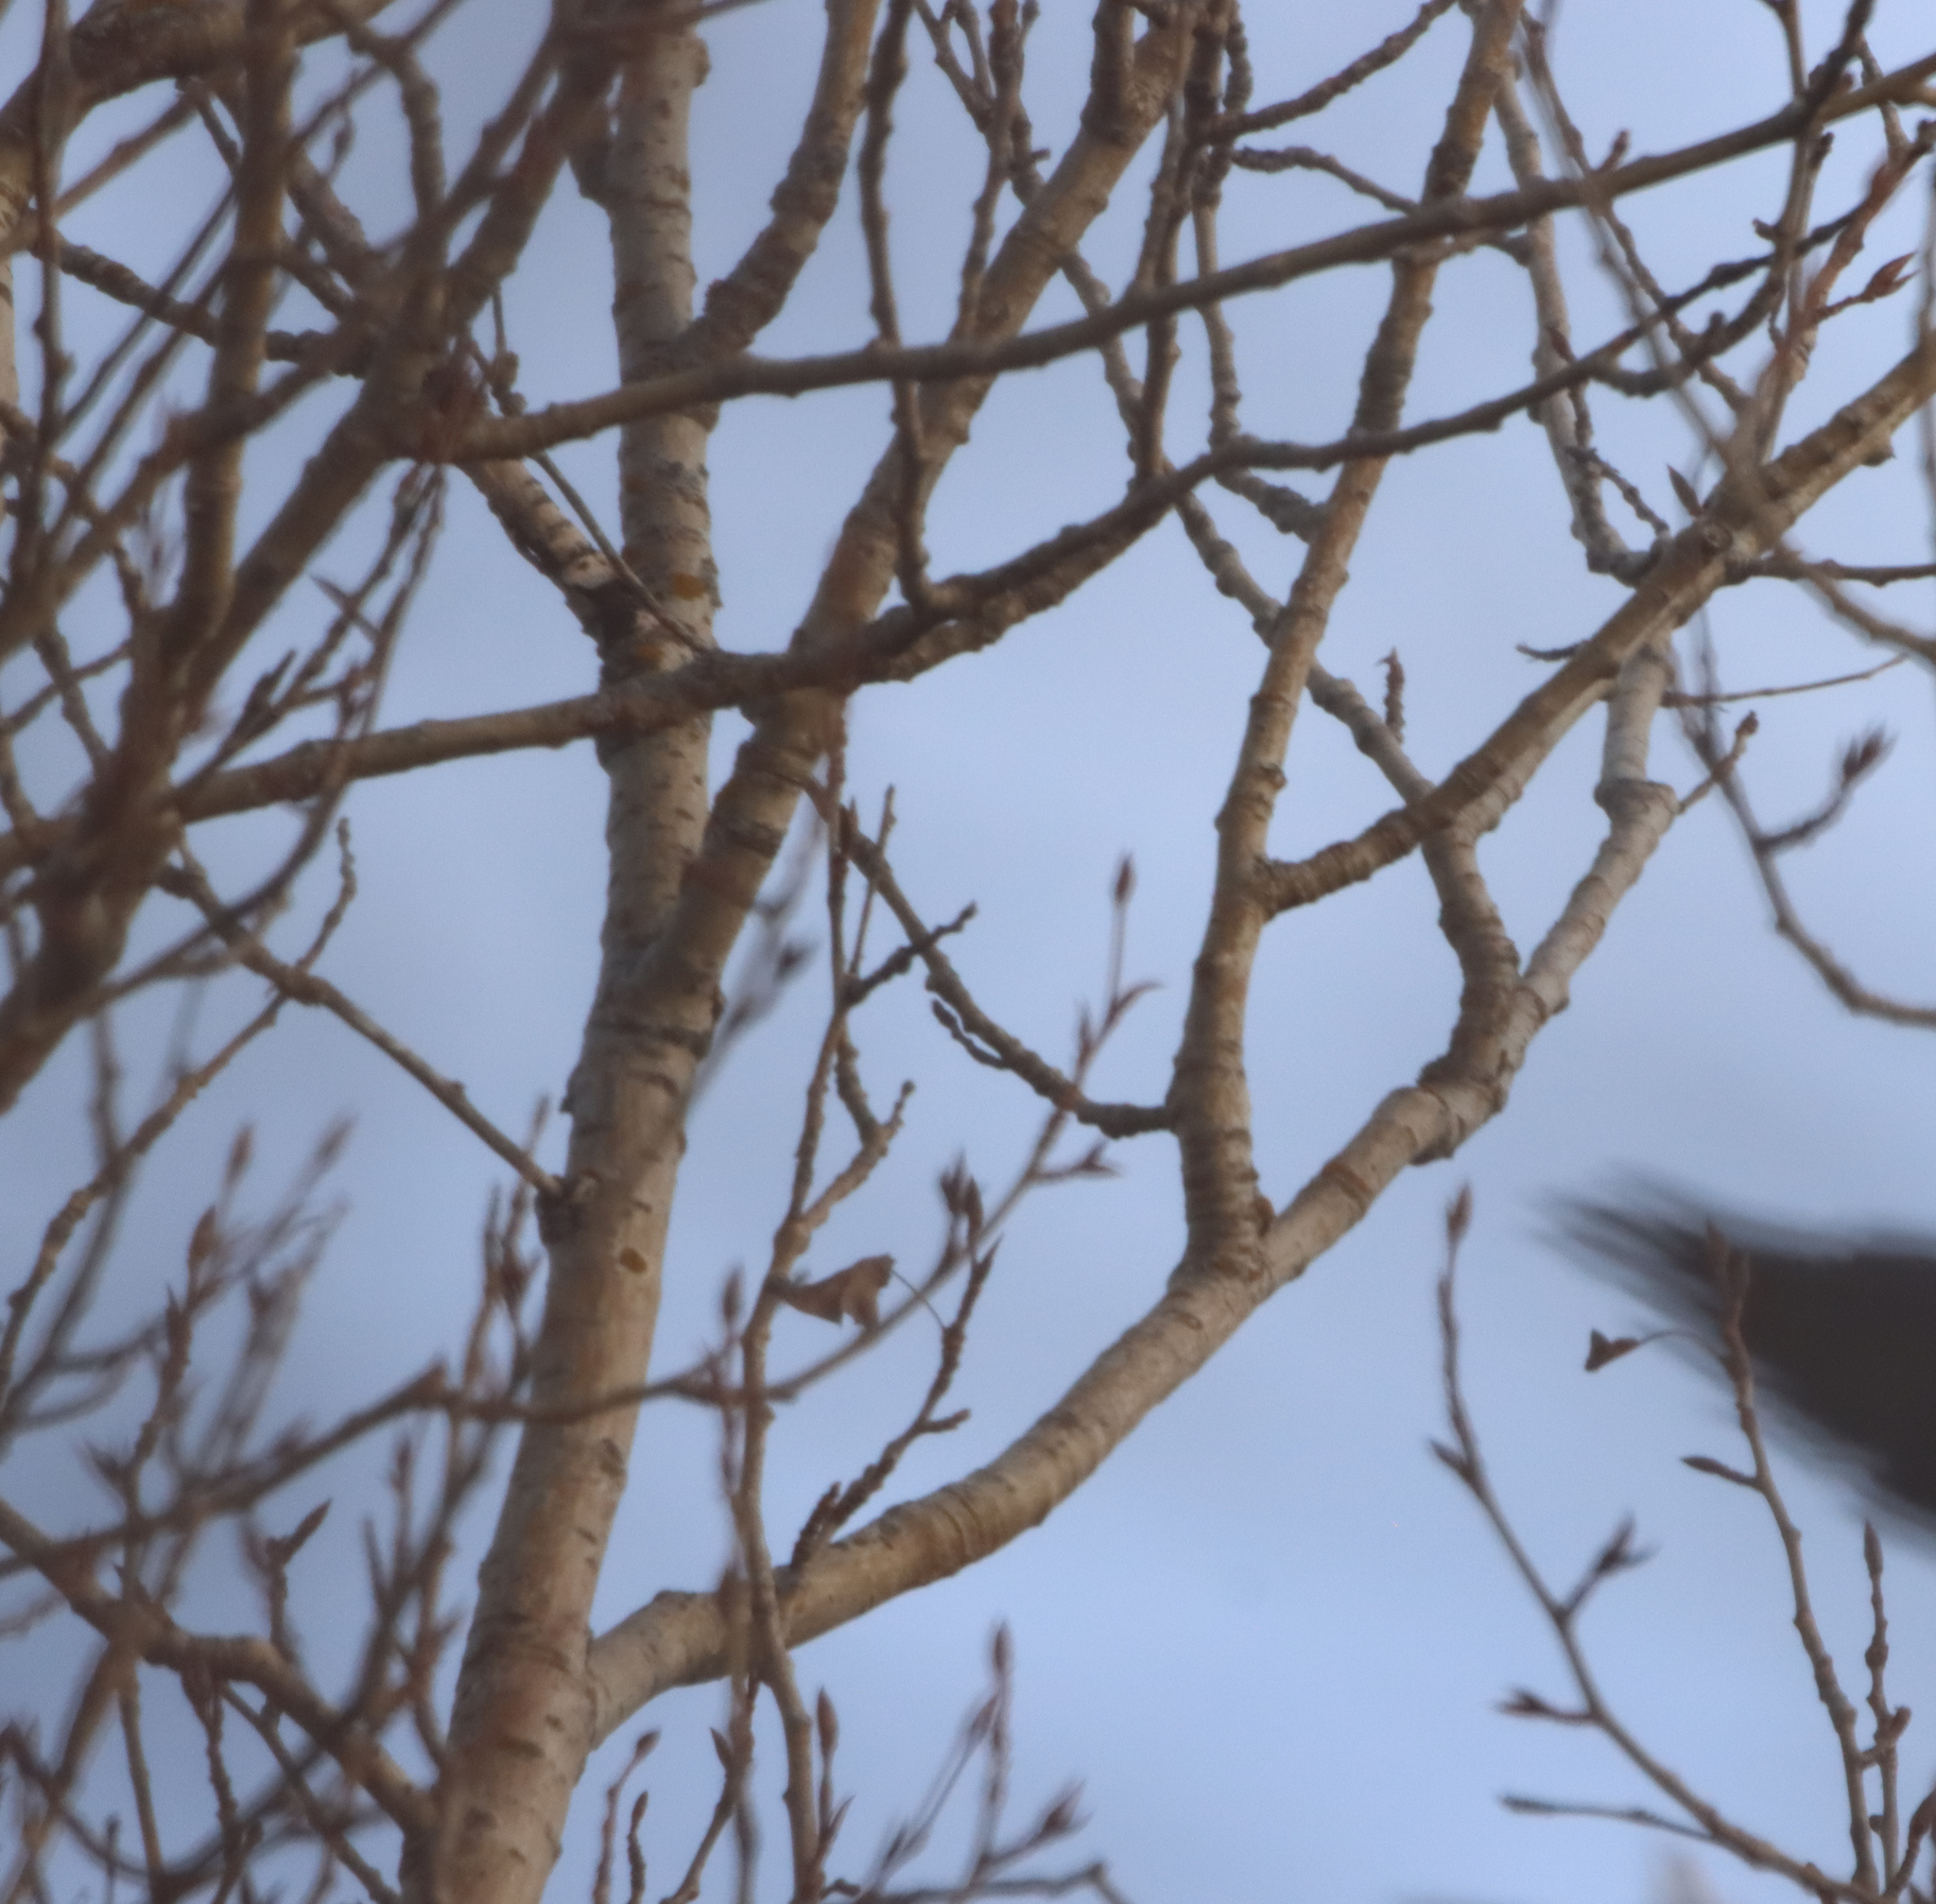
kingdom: Plantae
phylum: Tracheophyta
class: Magnoliopsida
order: Malpighiales
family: Salicaceae
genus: Populus
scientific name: Populus balsamifera
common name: Balsam poplar
